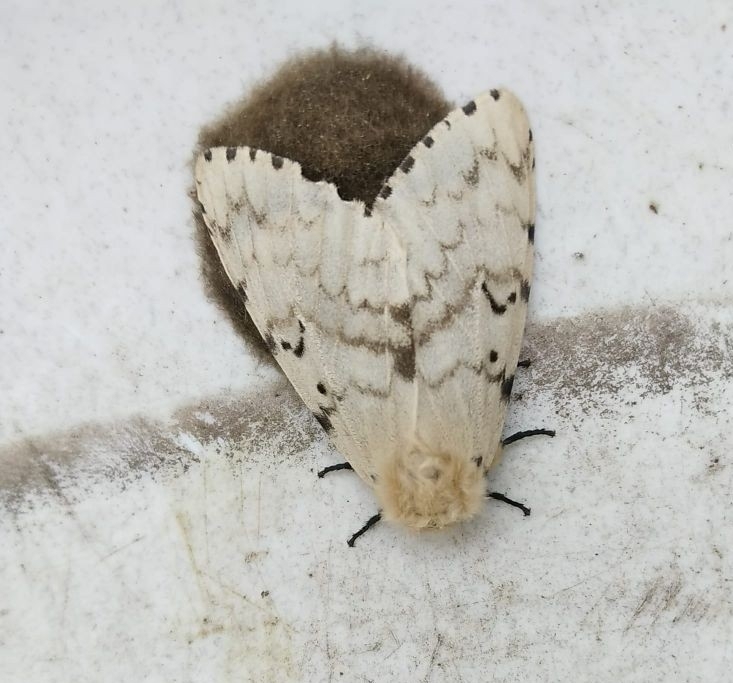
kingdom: Animalia
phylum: Arthropoda
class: Insecta
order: Lepidoptera
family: Erebidae
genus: Lymantria
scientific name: Lymantria dispar
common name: Gypsy moth
